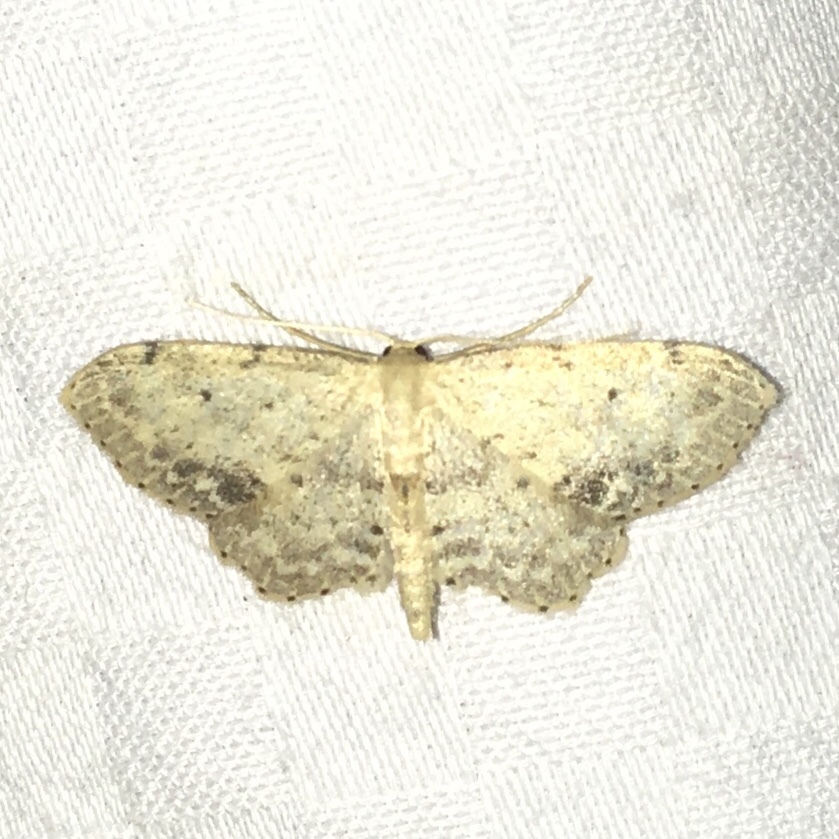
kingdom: Animalia
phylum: Arthropoda
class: Insecta
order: Lepidoptera
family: Geometridae
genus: Idaea
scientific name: Idaea dimidiata
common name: Single-dotted wave
